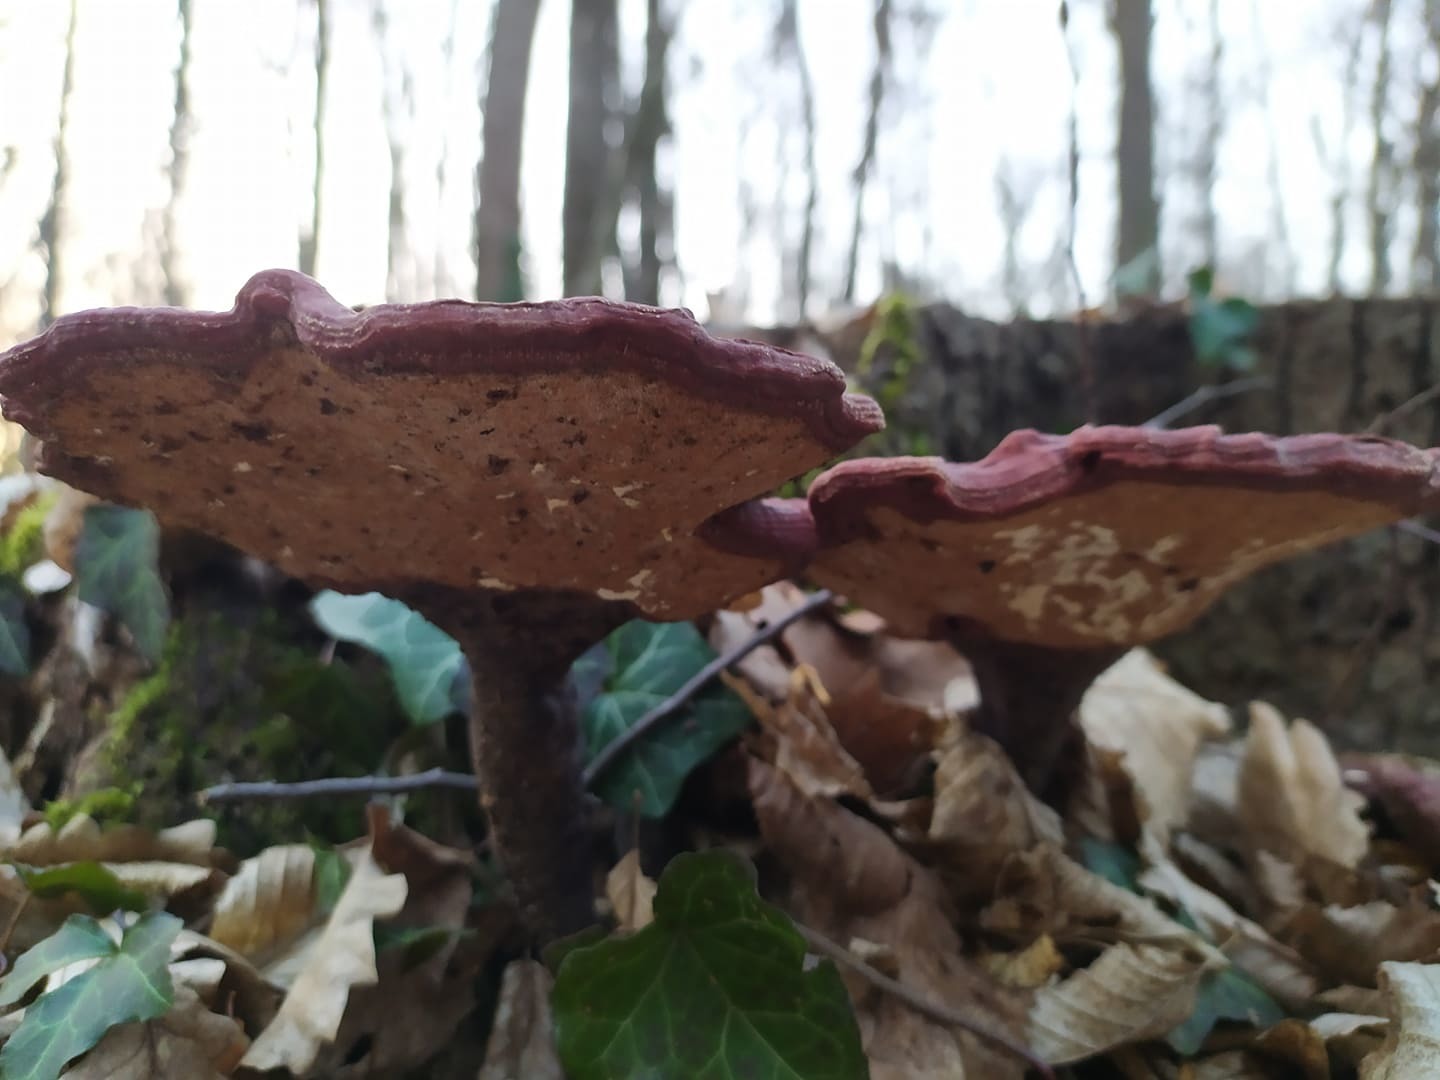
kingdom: Fungi
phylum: Basidiomycota
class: Agaricomycetes
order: Polyporales
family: Polyporaceae
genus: Ganoderma
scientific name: Ganoderma lucidum
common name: Lacquered bracket
